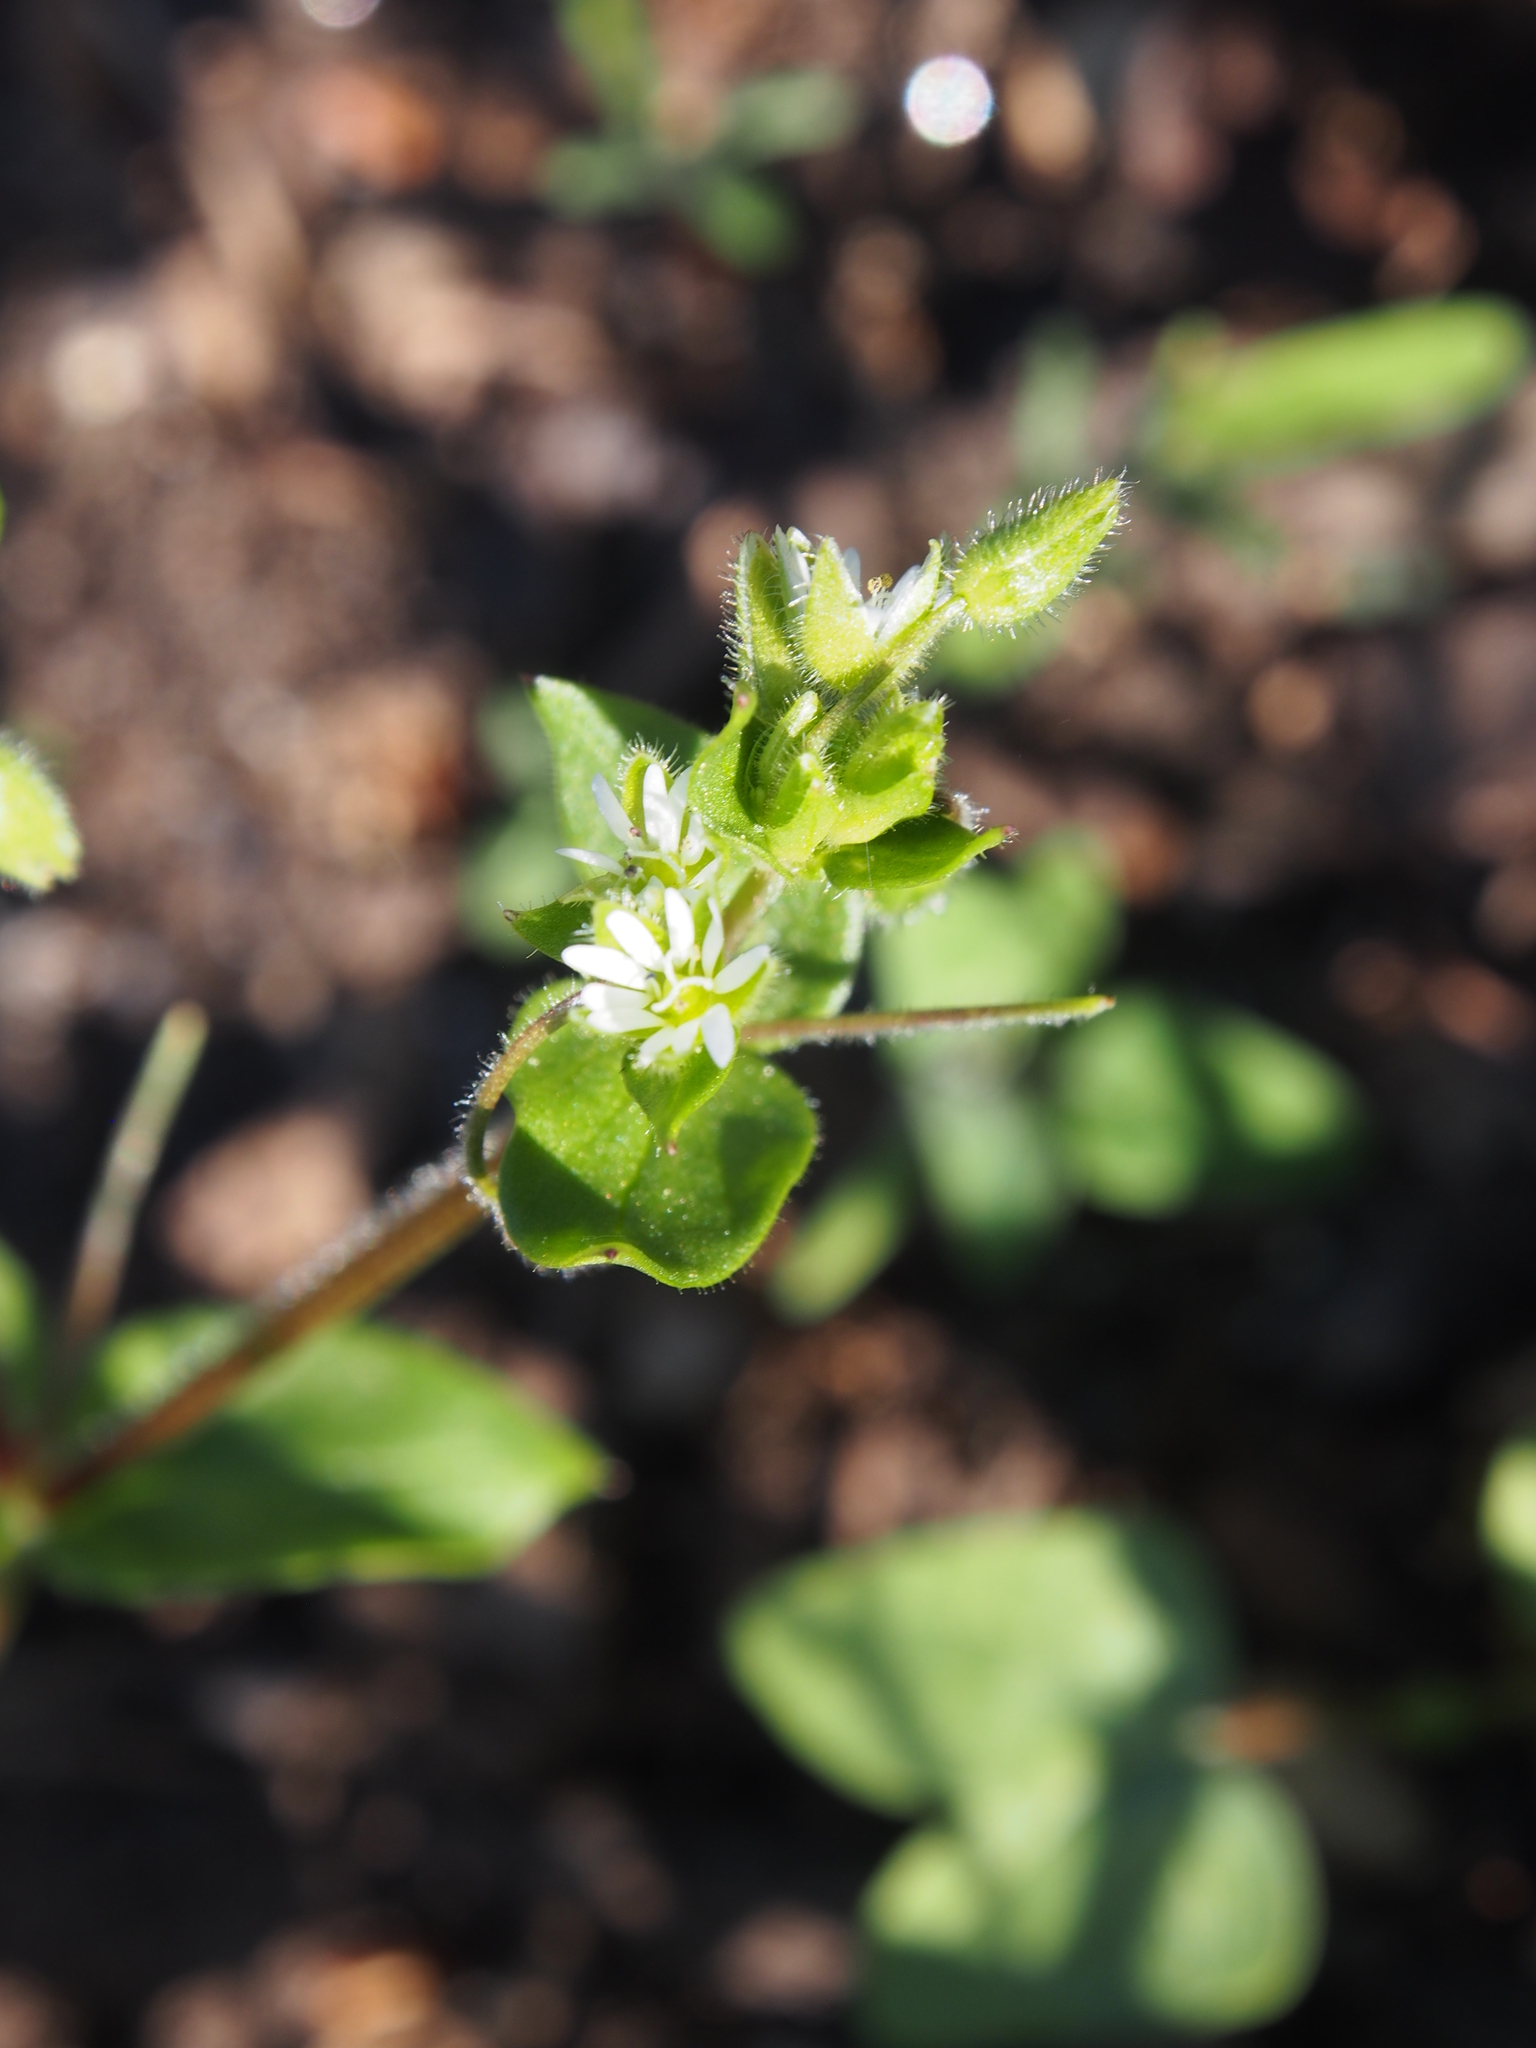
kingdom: Plantae
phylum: Tracheophyta
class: Magnoliopsida
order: Caryophyllales
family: Caryophyllaceae
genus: Stellaria
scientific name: Stellaria media
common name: Common chickweed
